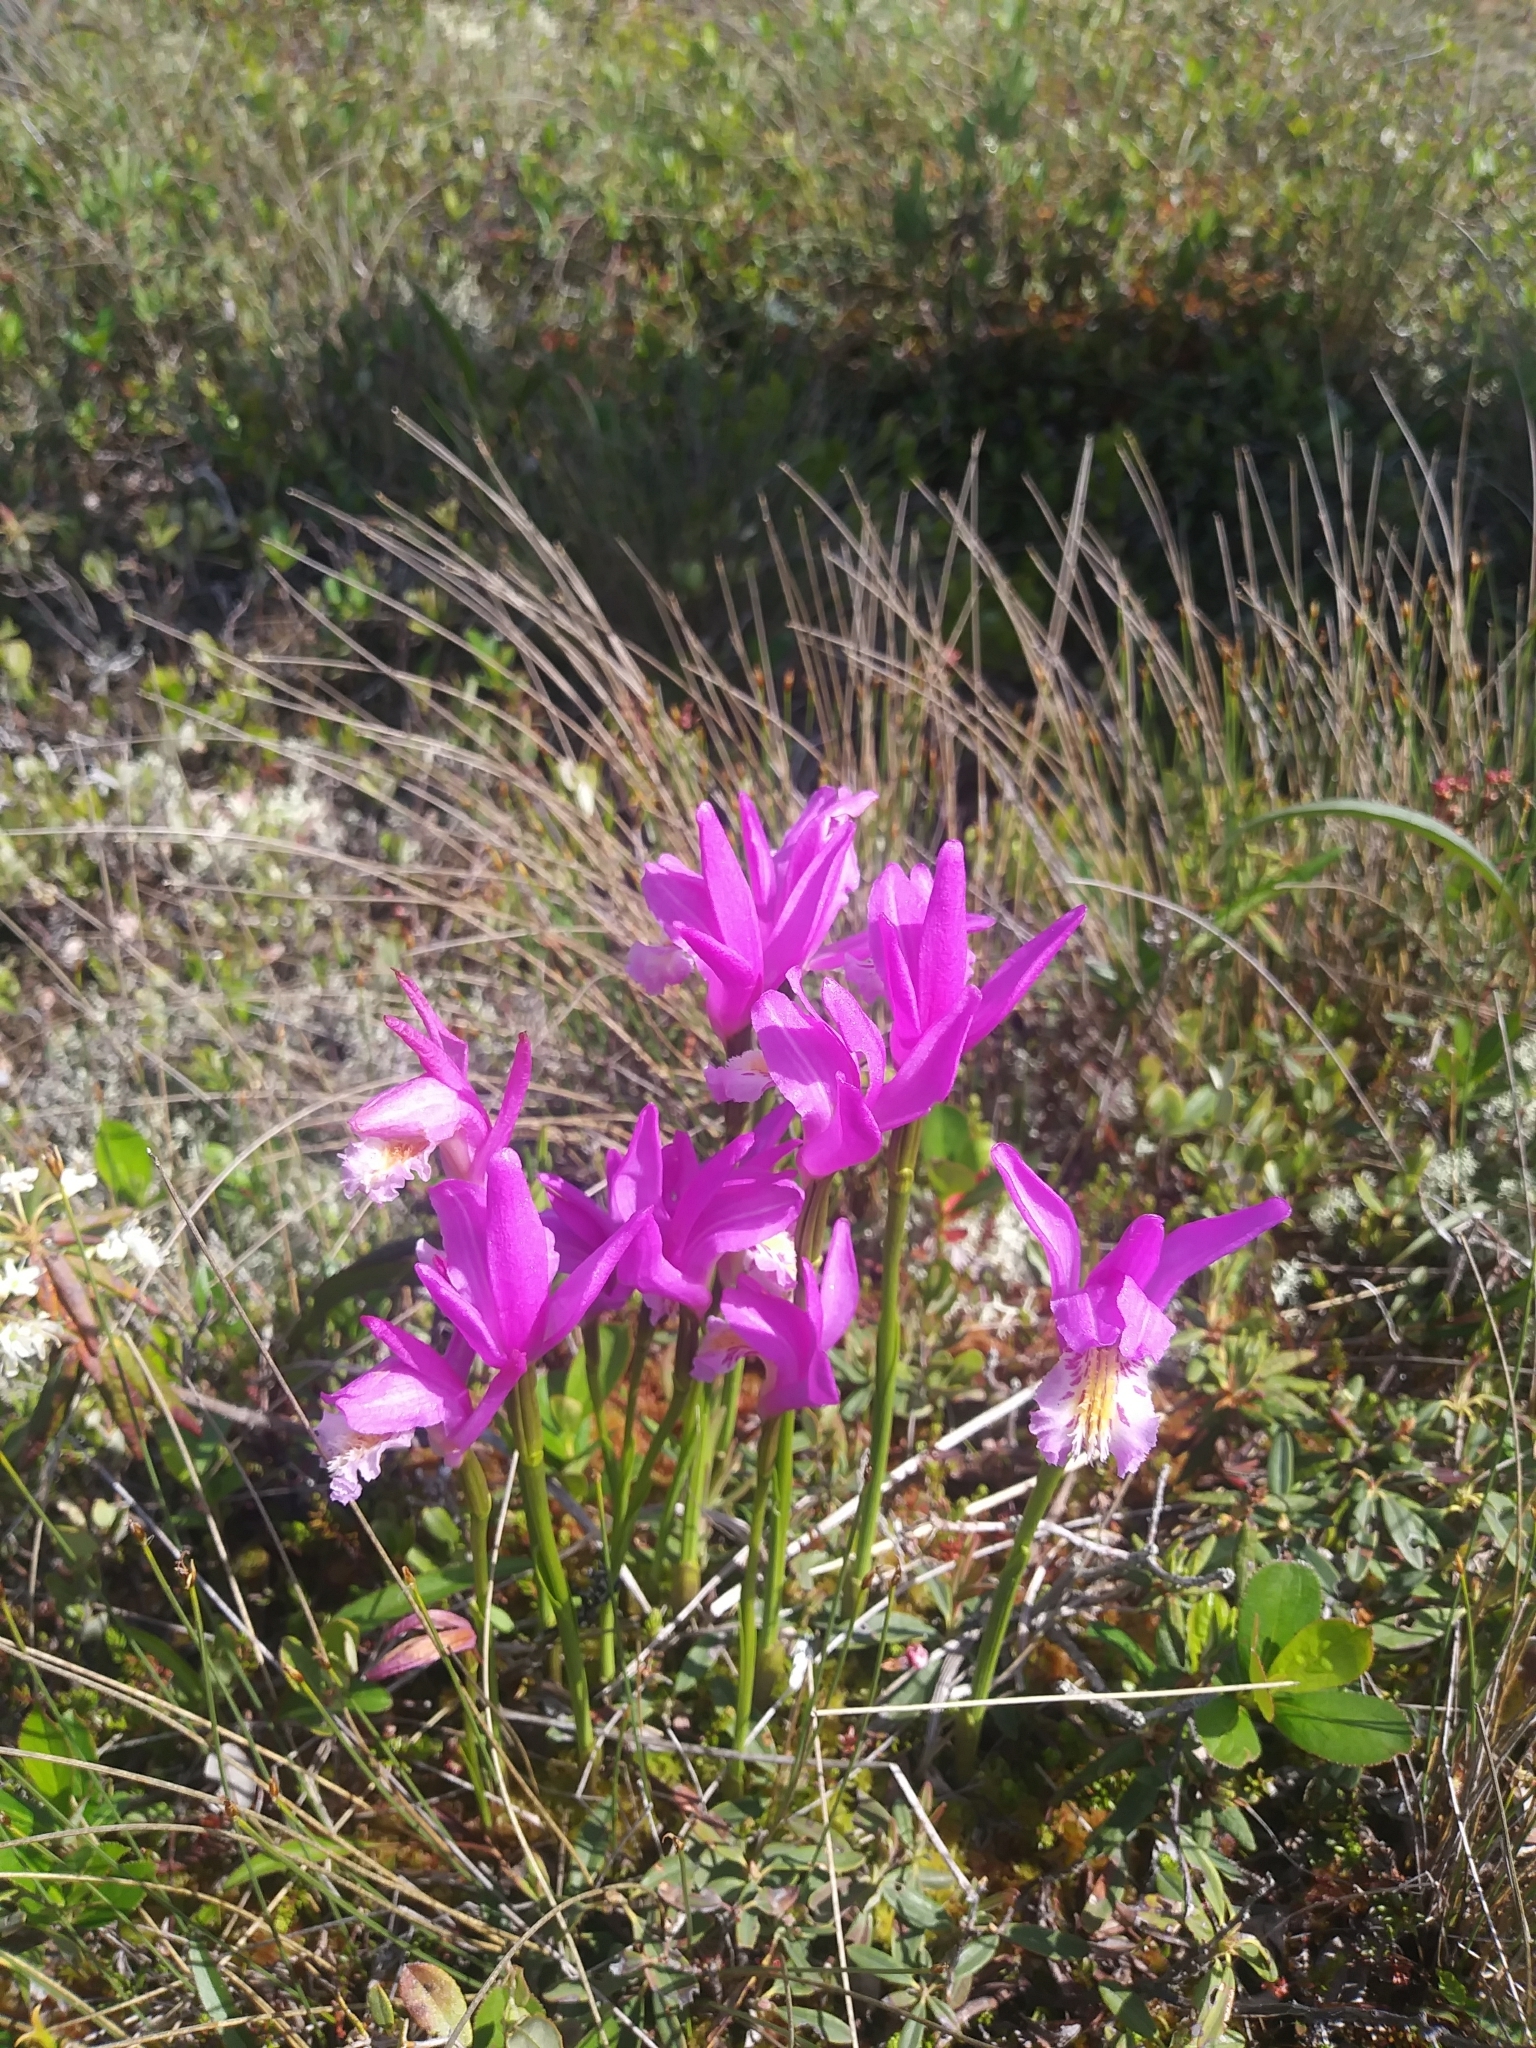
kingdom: Plantae
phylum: Tracheophyta
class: Liliopsida
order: Asparagales
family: Orchidaceae
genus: Arethusa
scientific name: Arethusa bulbosa
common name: Arethusa
